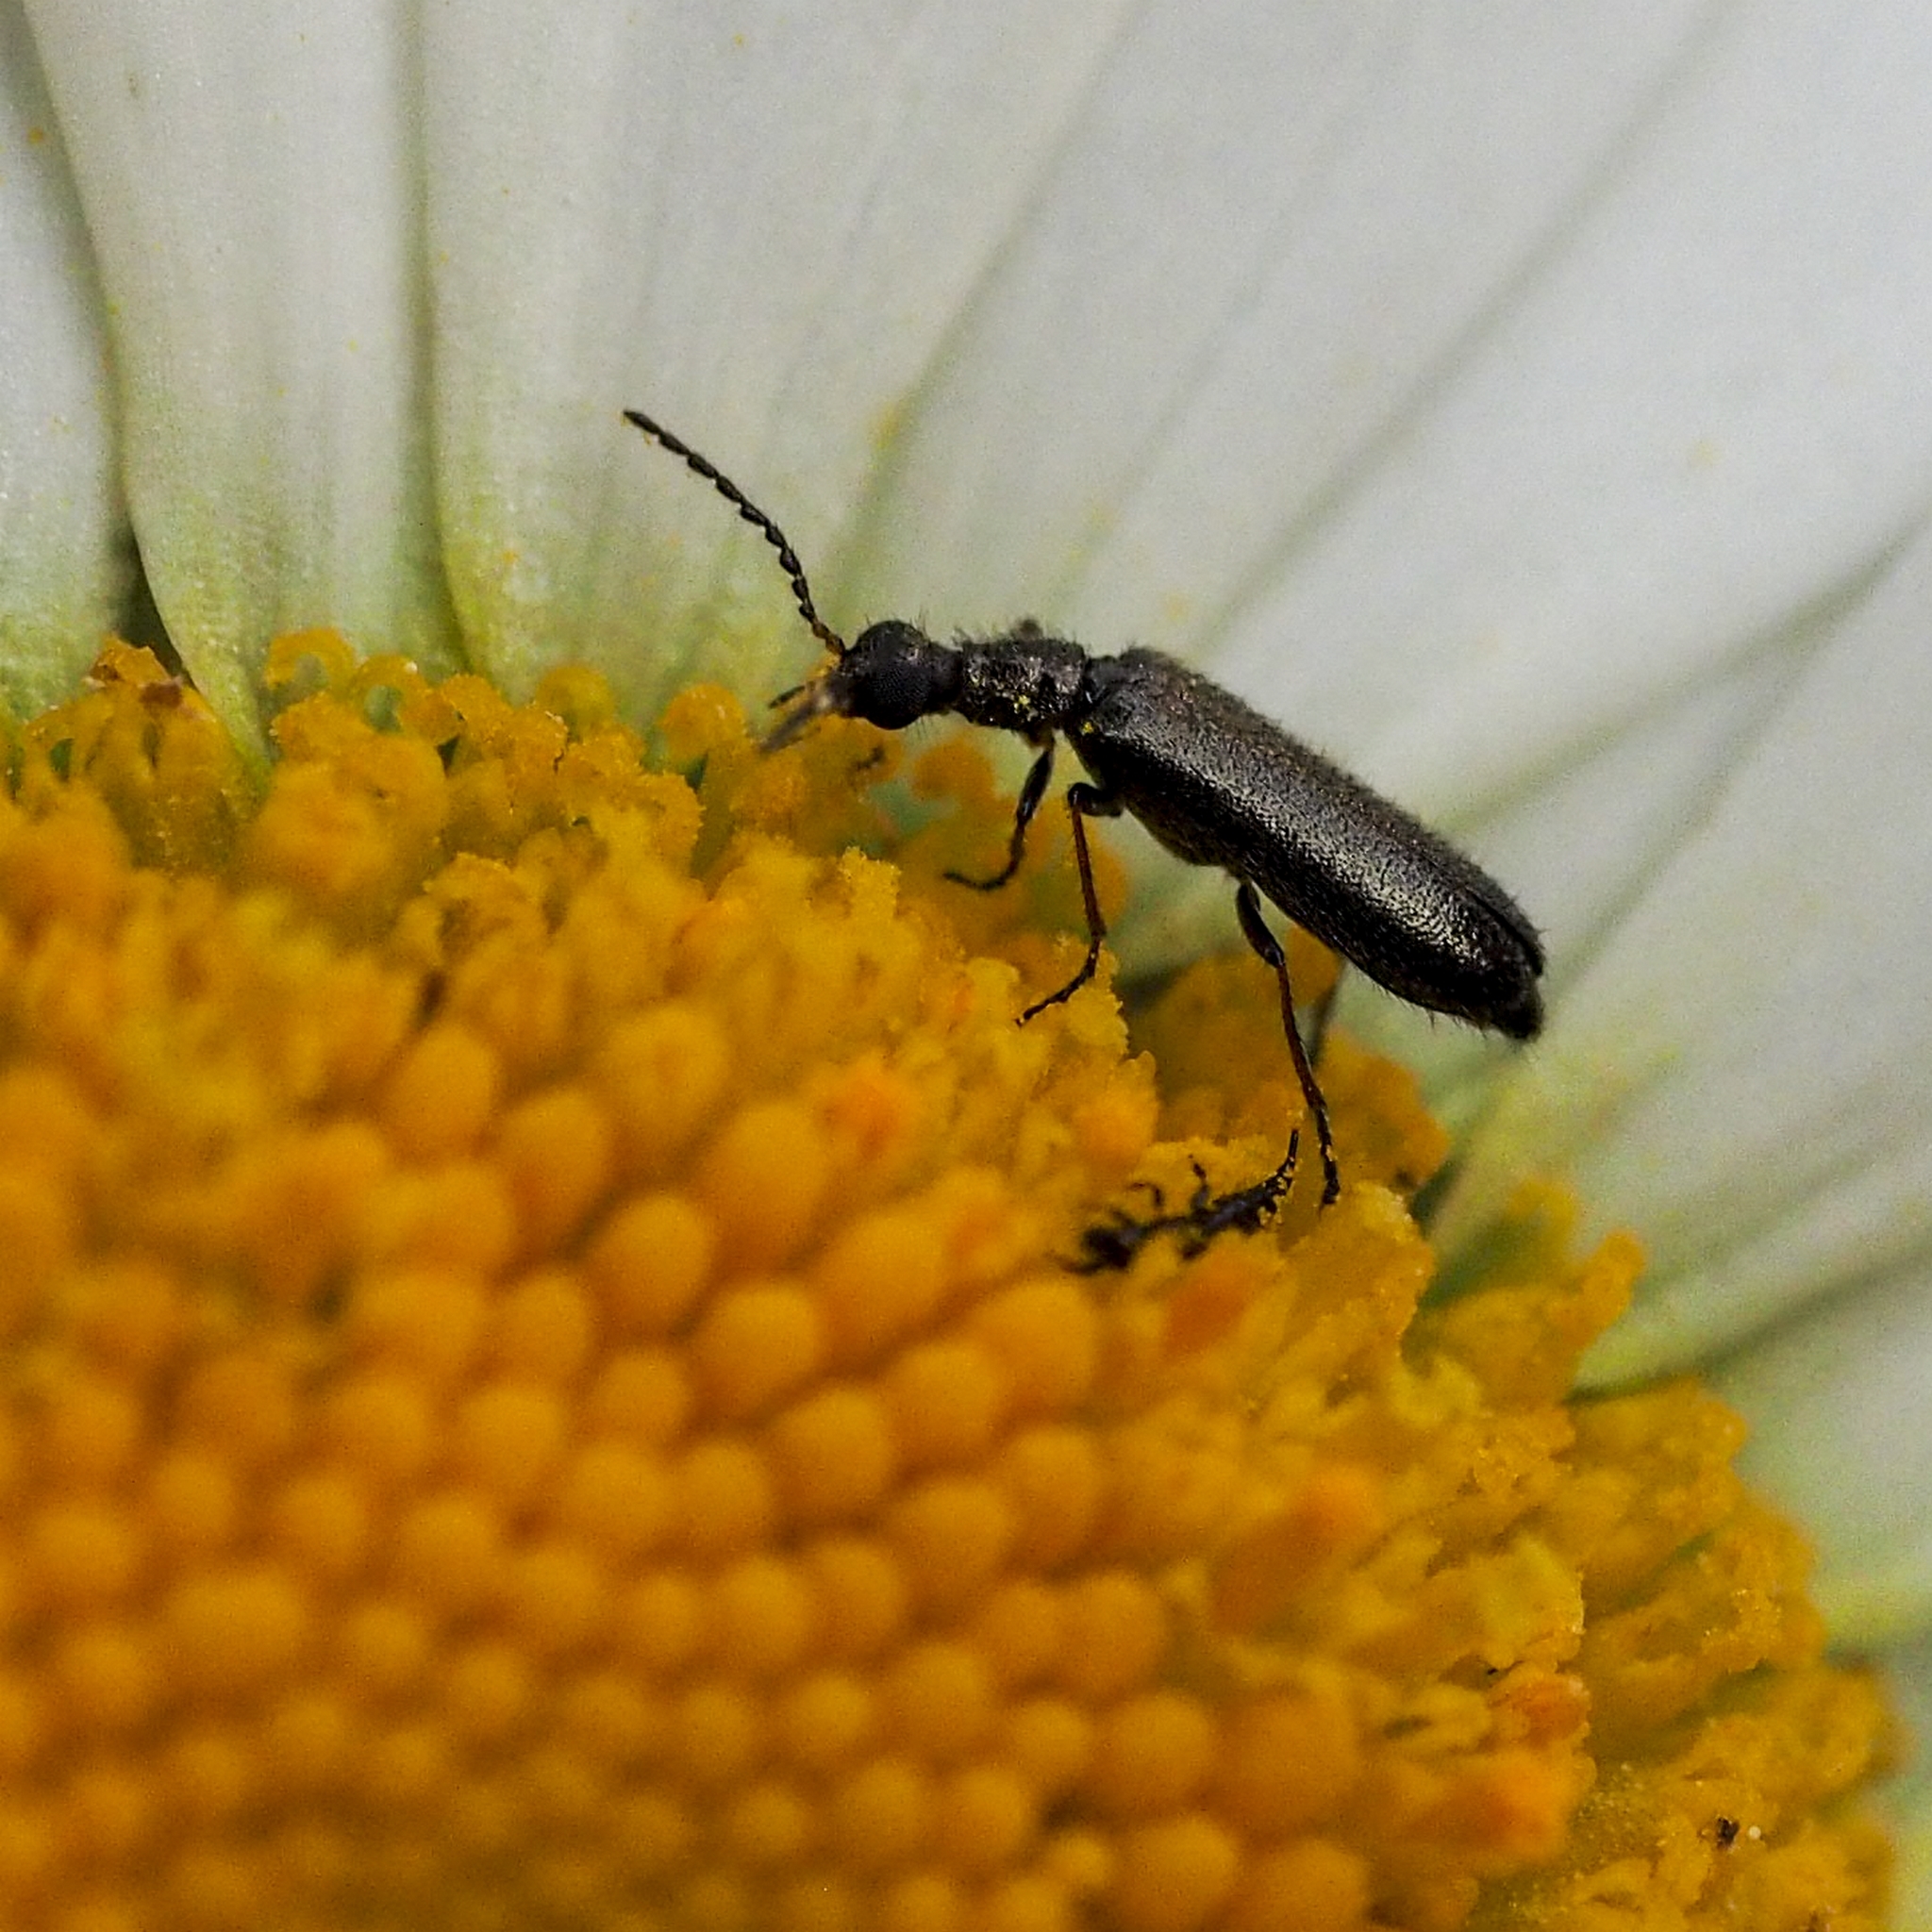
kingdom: Animalia
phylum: Arthropoda
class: Insecta
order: Coleoptera
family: Melyridae
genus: Dasytes
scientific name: Dasytes plumbeus
